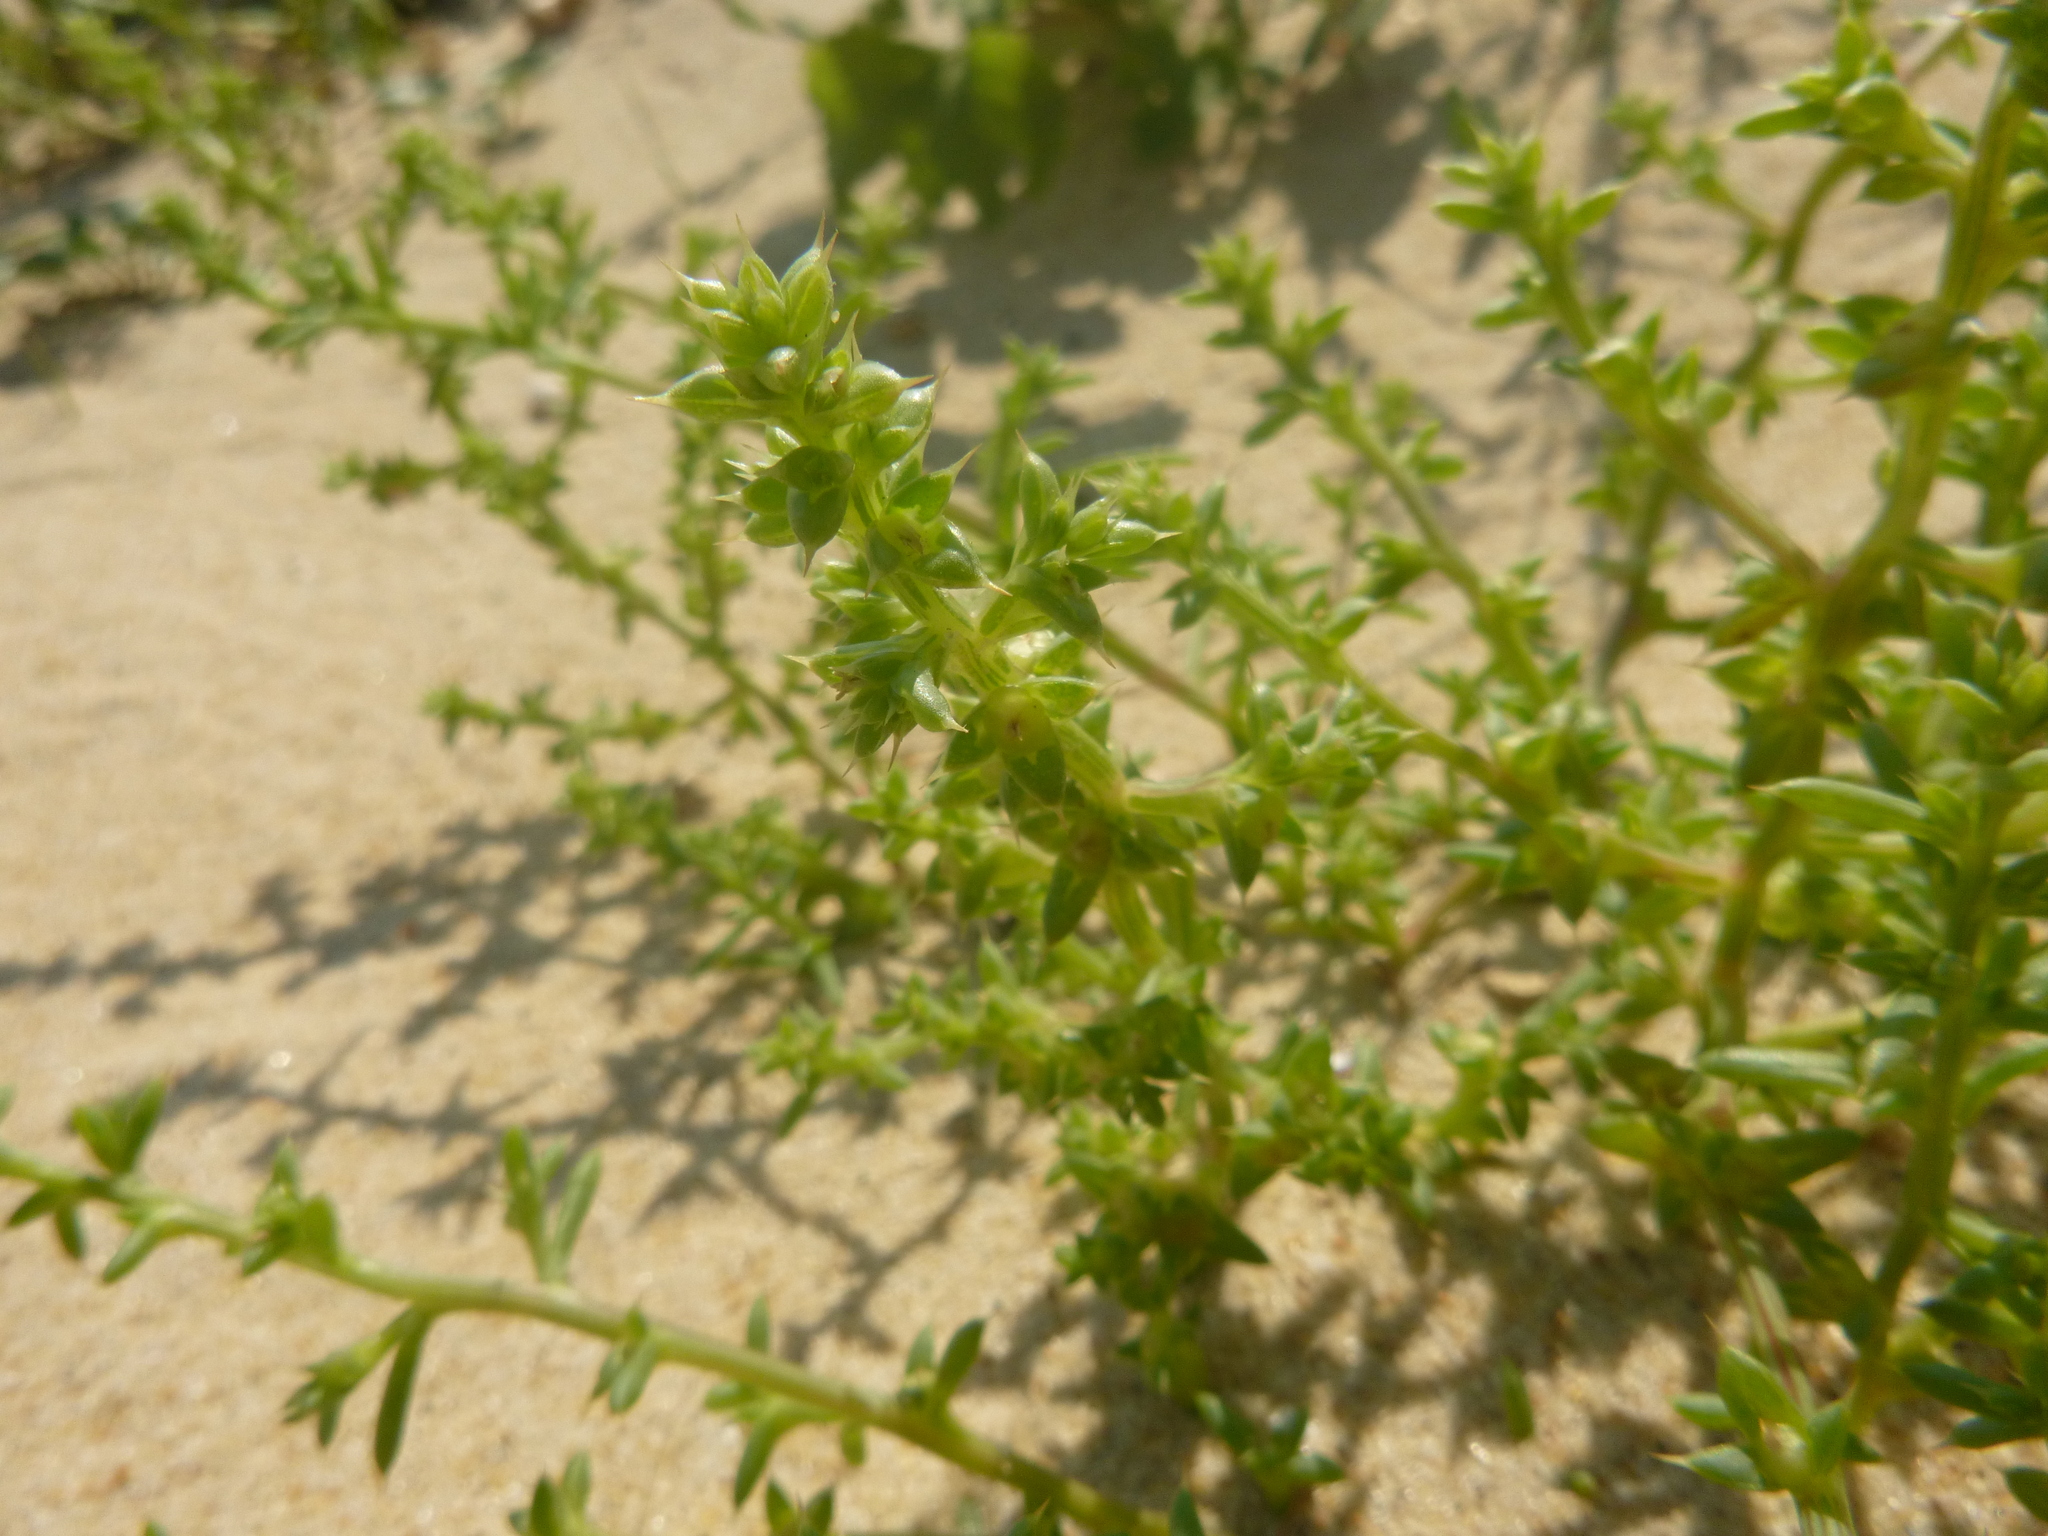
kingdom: Plantae
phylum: Tracheophyta
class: Magnoliopsida
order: Caryophyllales
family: Amaranthaceae
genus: Salsola
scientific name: Salsola kali
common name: Saltwort
